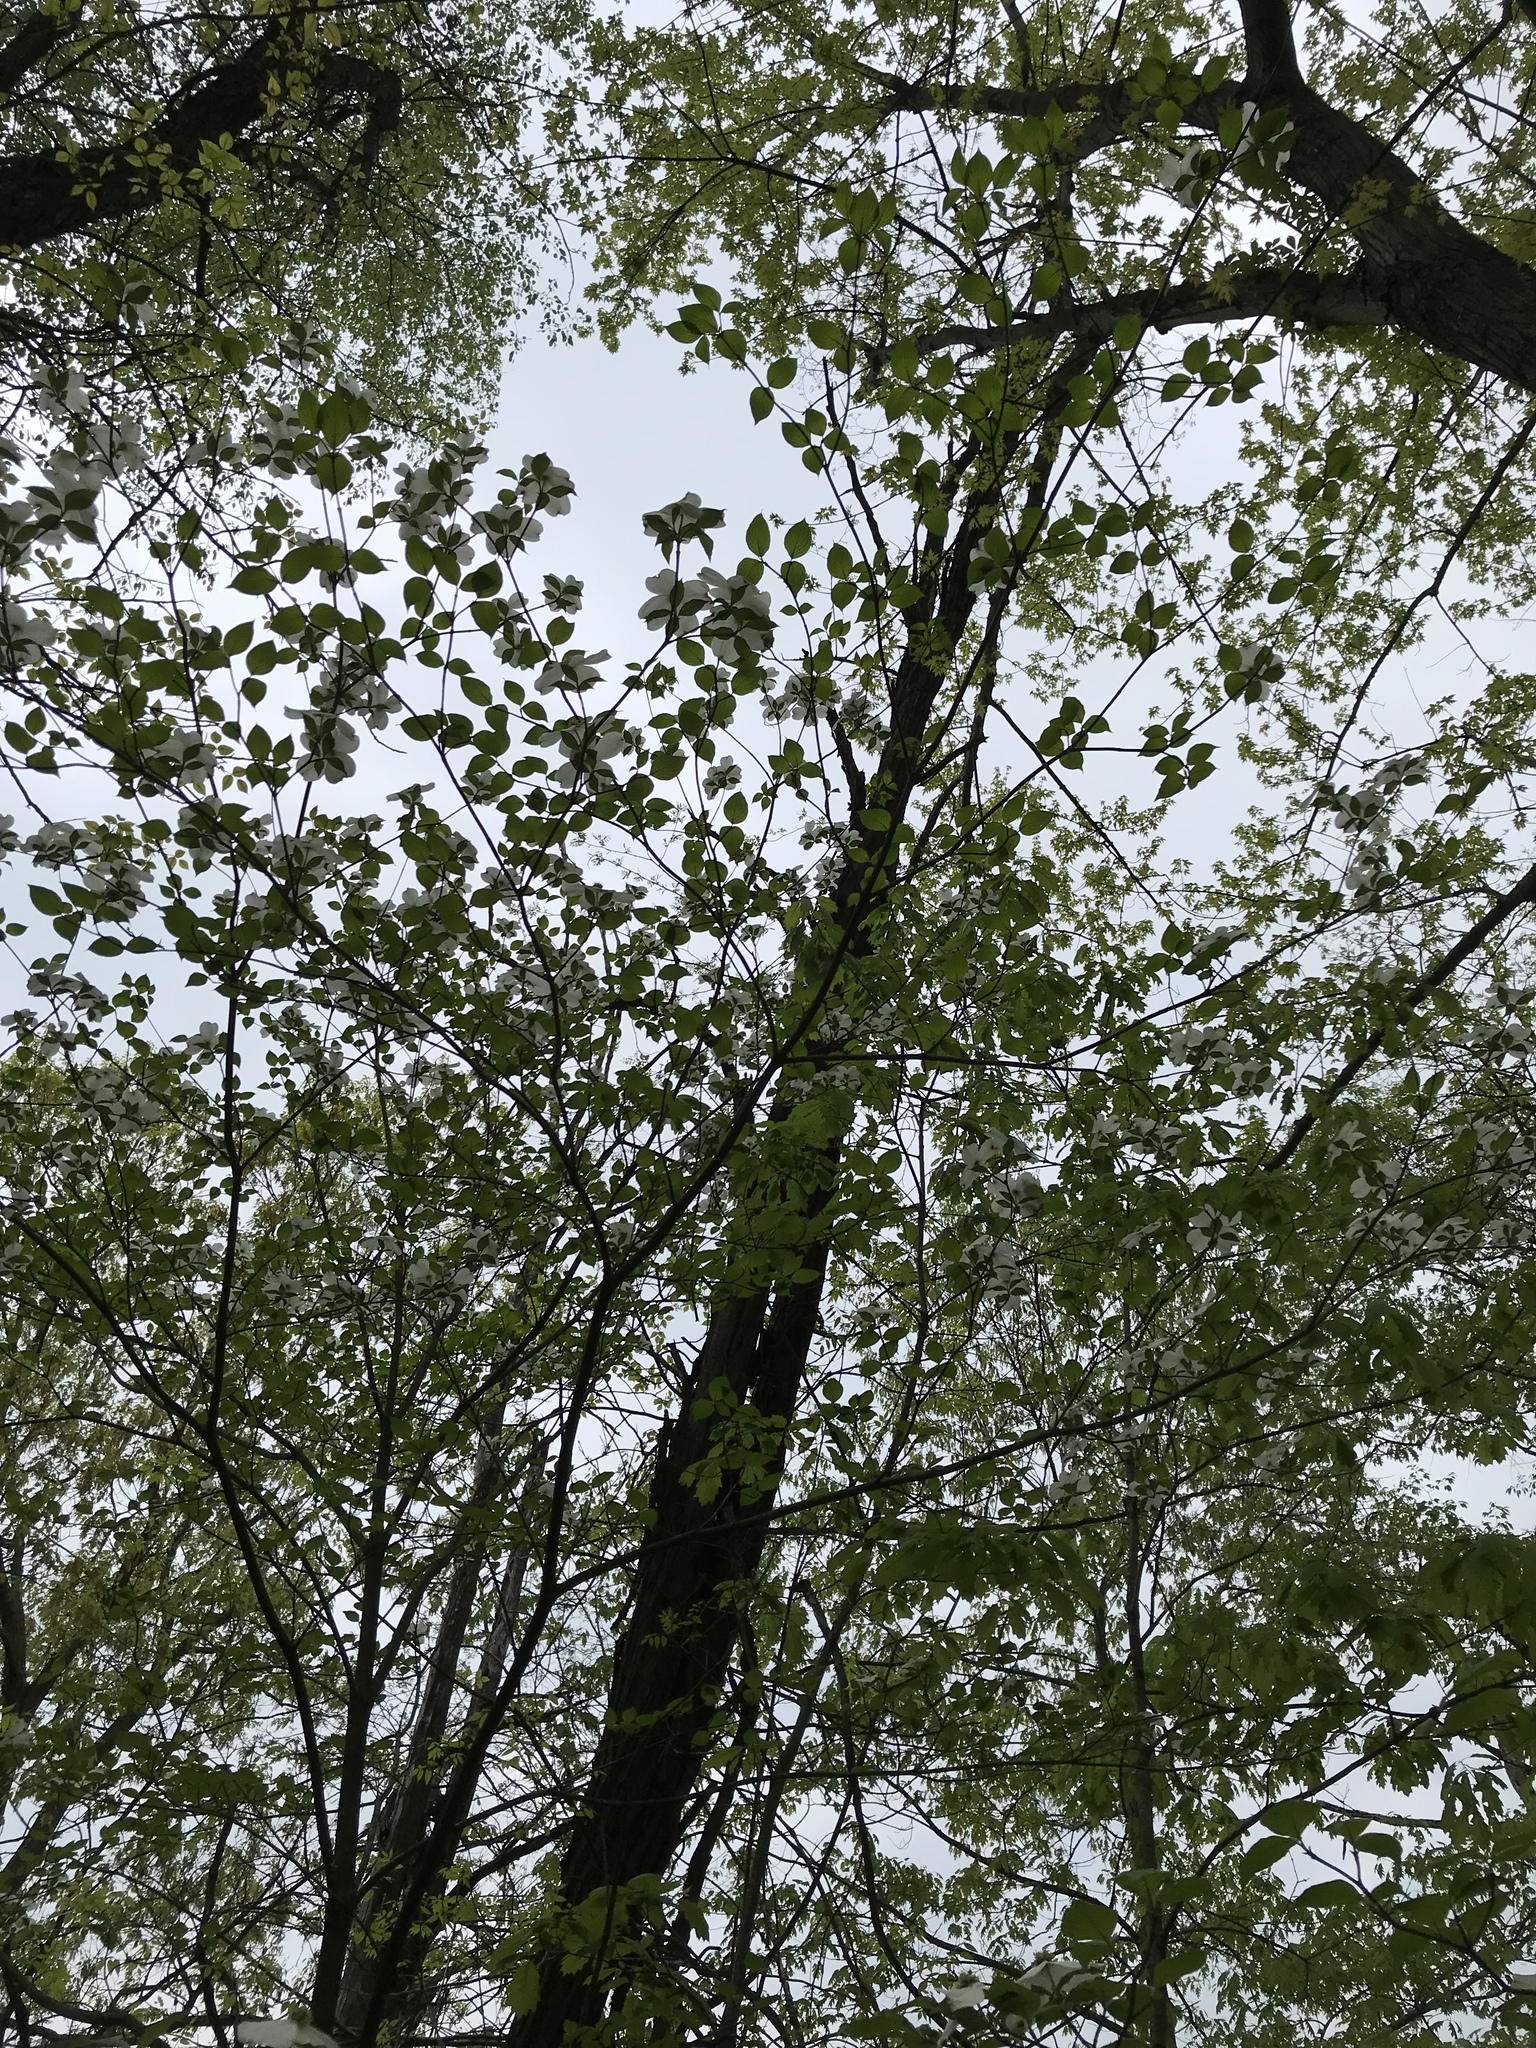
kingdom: Plantae
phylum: Tracheophyta
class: Magnoliopsida
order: Cornales
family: Cornaceae
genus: Cornus
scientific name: Cornus florida
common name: Flowering dogwood
